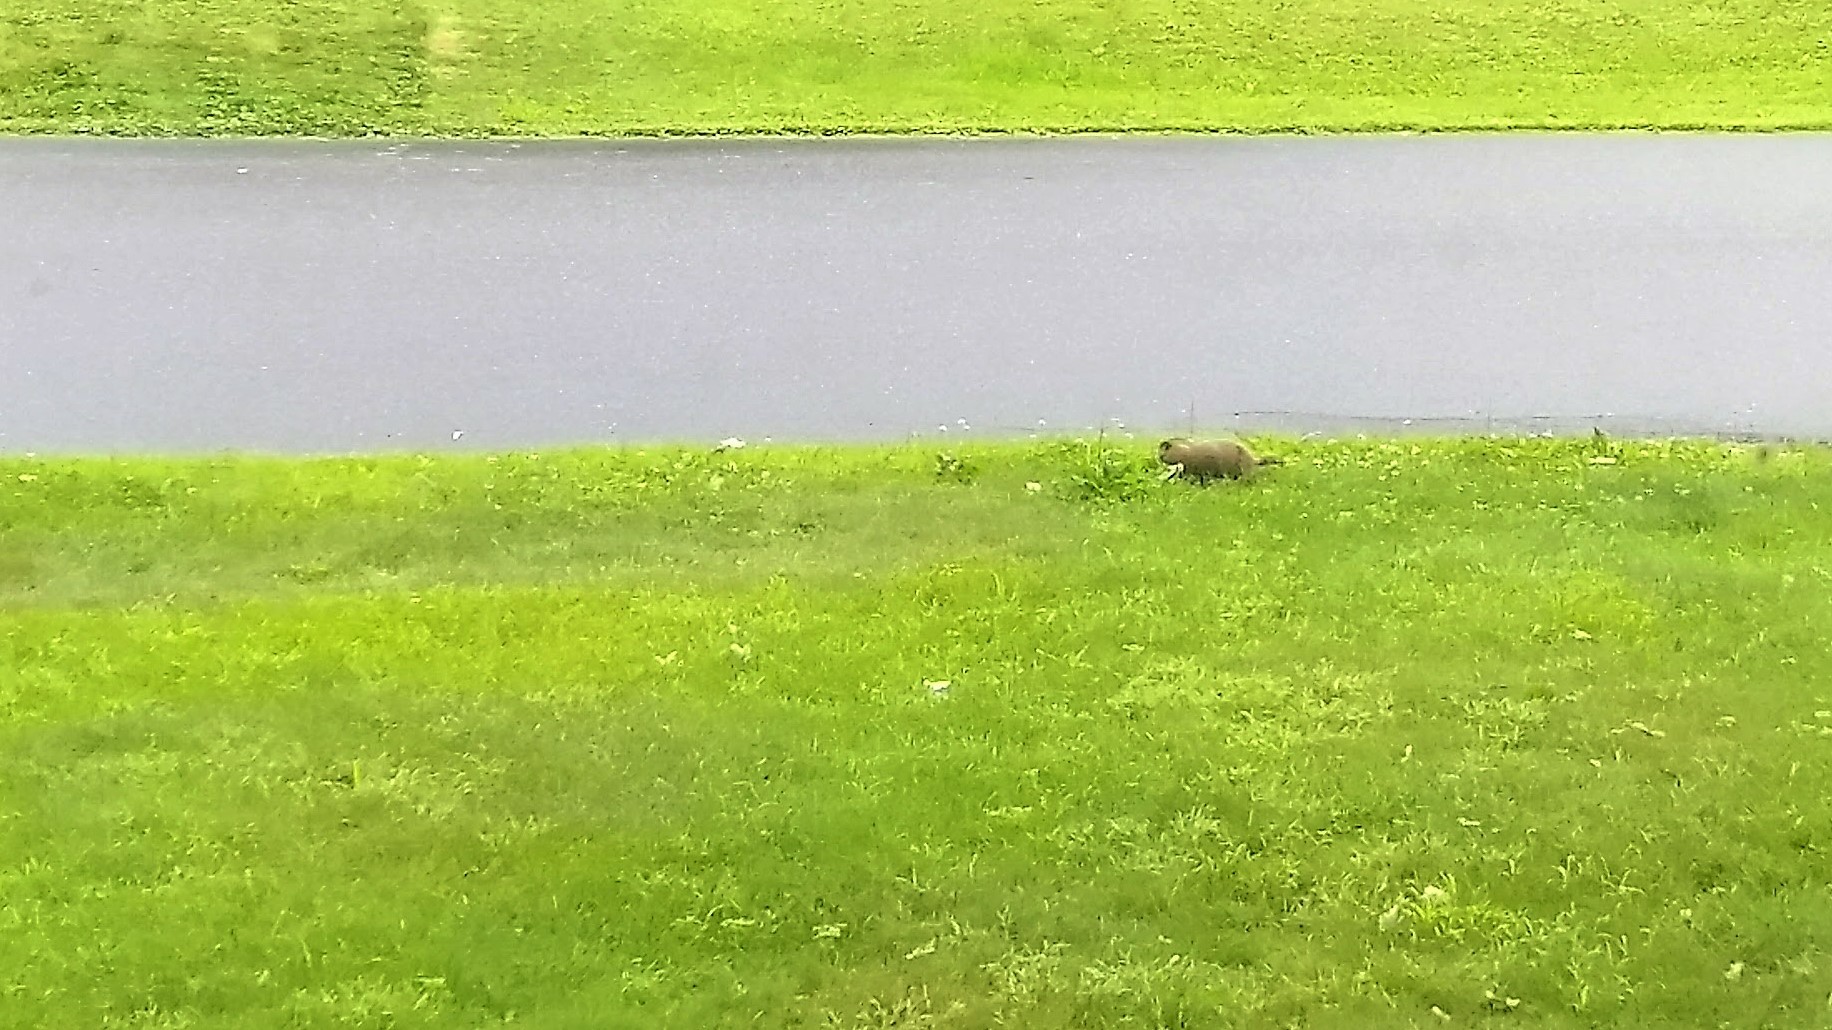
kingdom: Animalia
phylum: Chordata
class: Mammalia
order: Rodentia
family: Sciuridae
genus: Marmota
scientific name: Marmota monax
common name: Groundhog
